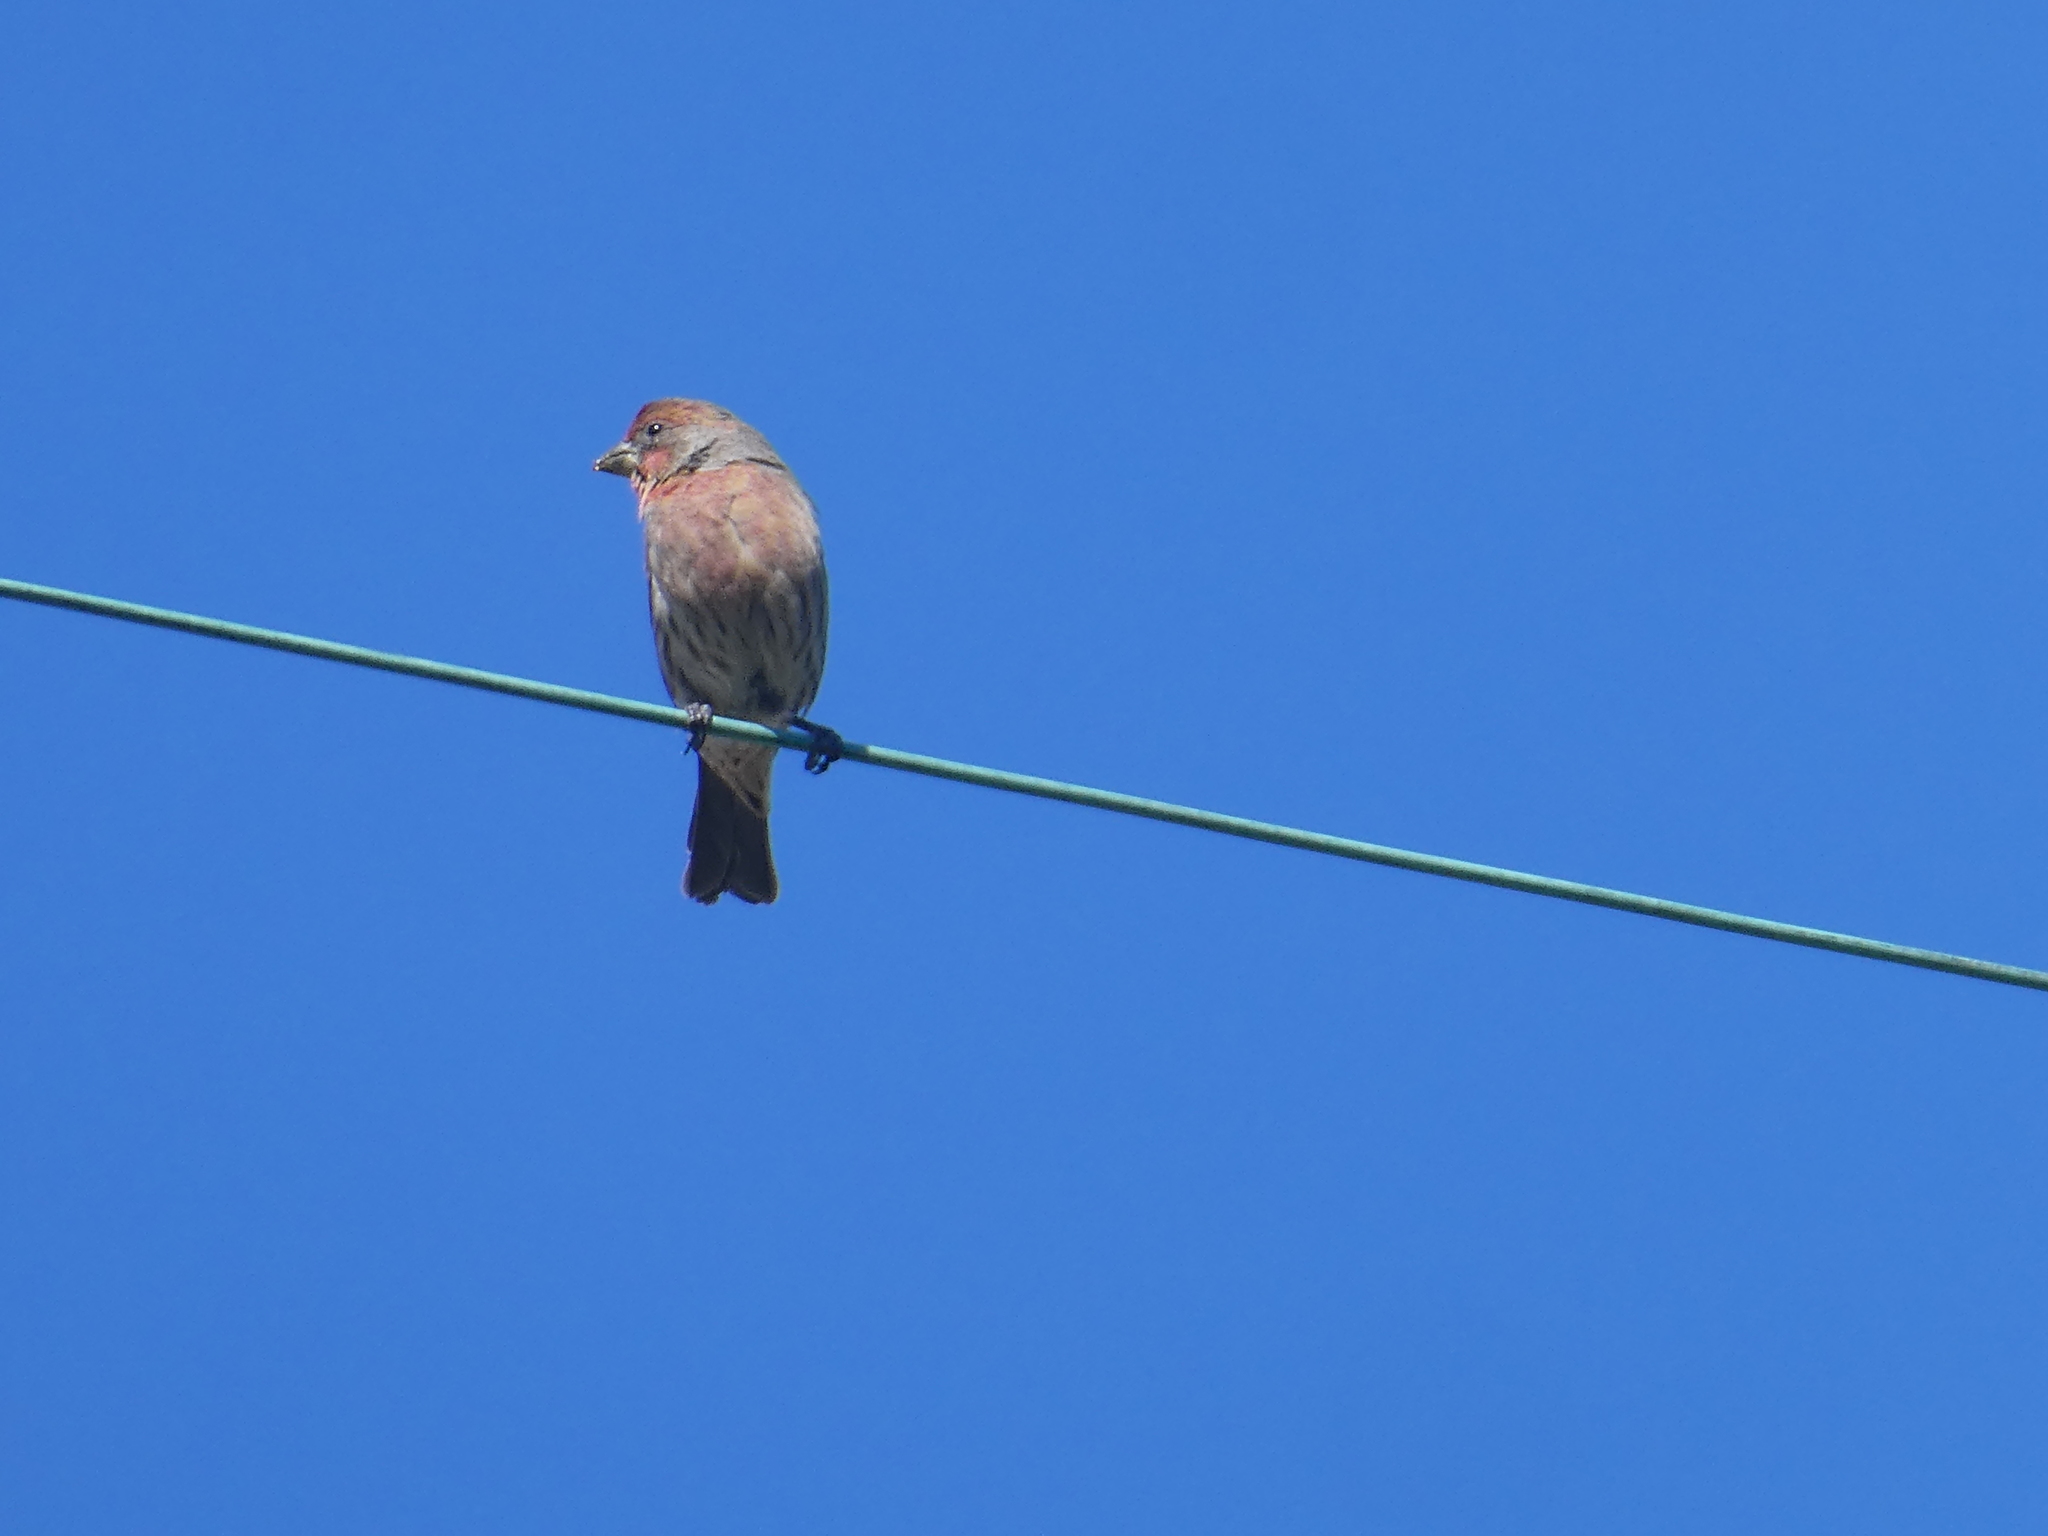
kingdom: Animalia
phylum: Chordata
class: Aves
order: Passeriformes
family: Fringillidae
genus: Haemorhous
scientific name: Haemorhous mexicanus
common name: House finch
